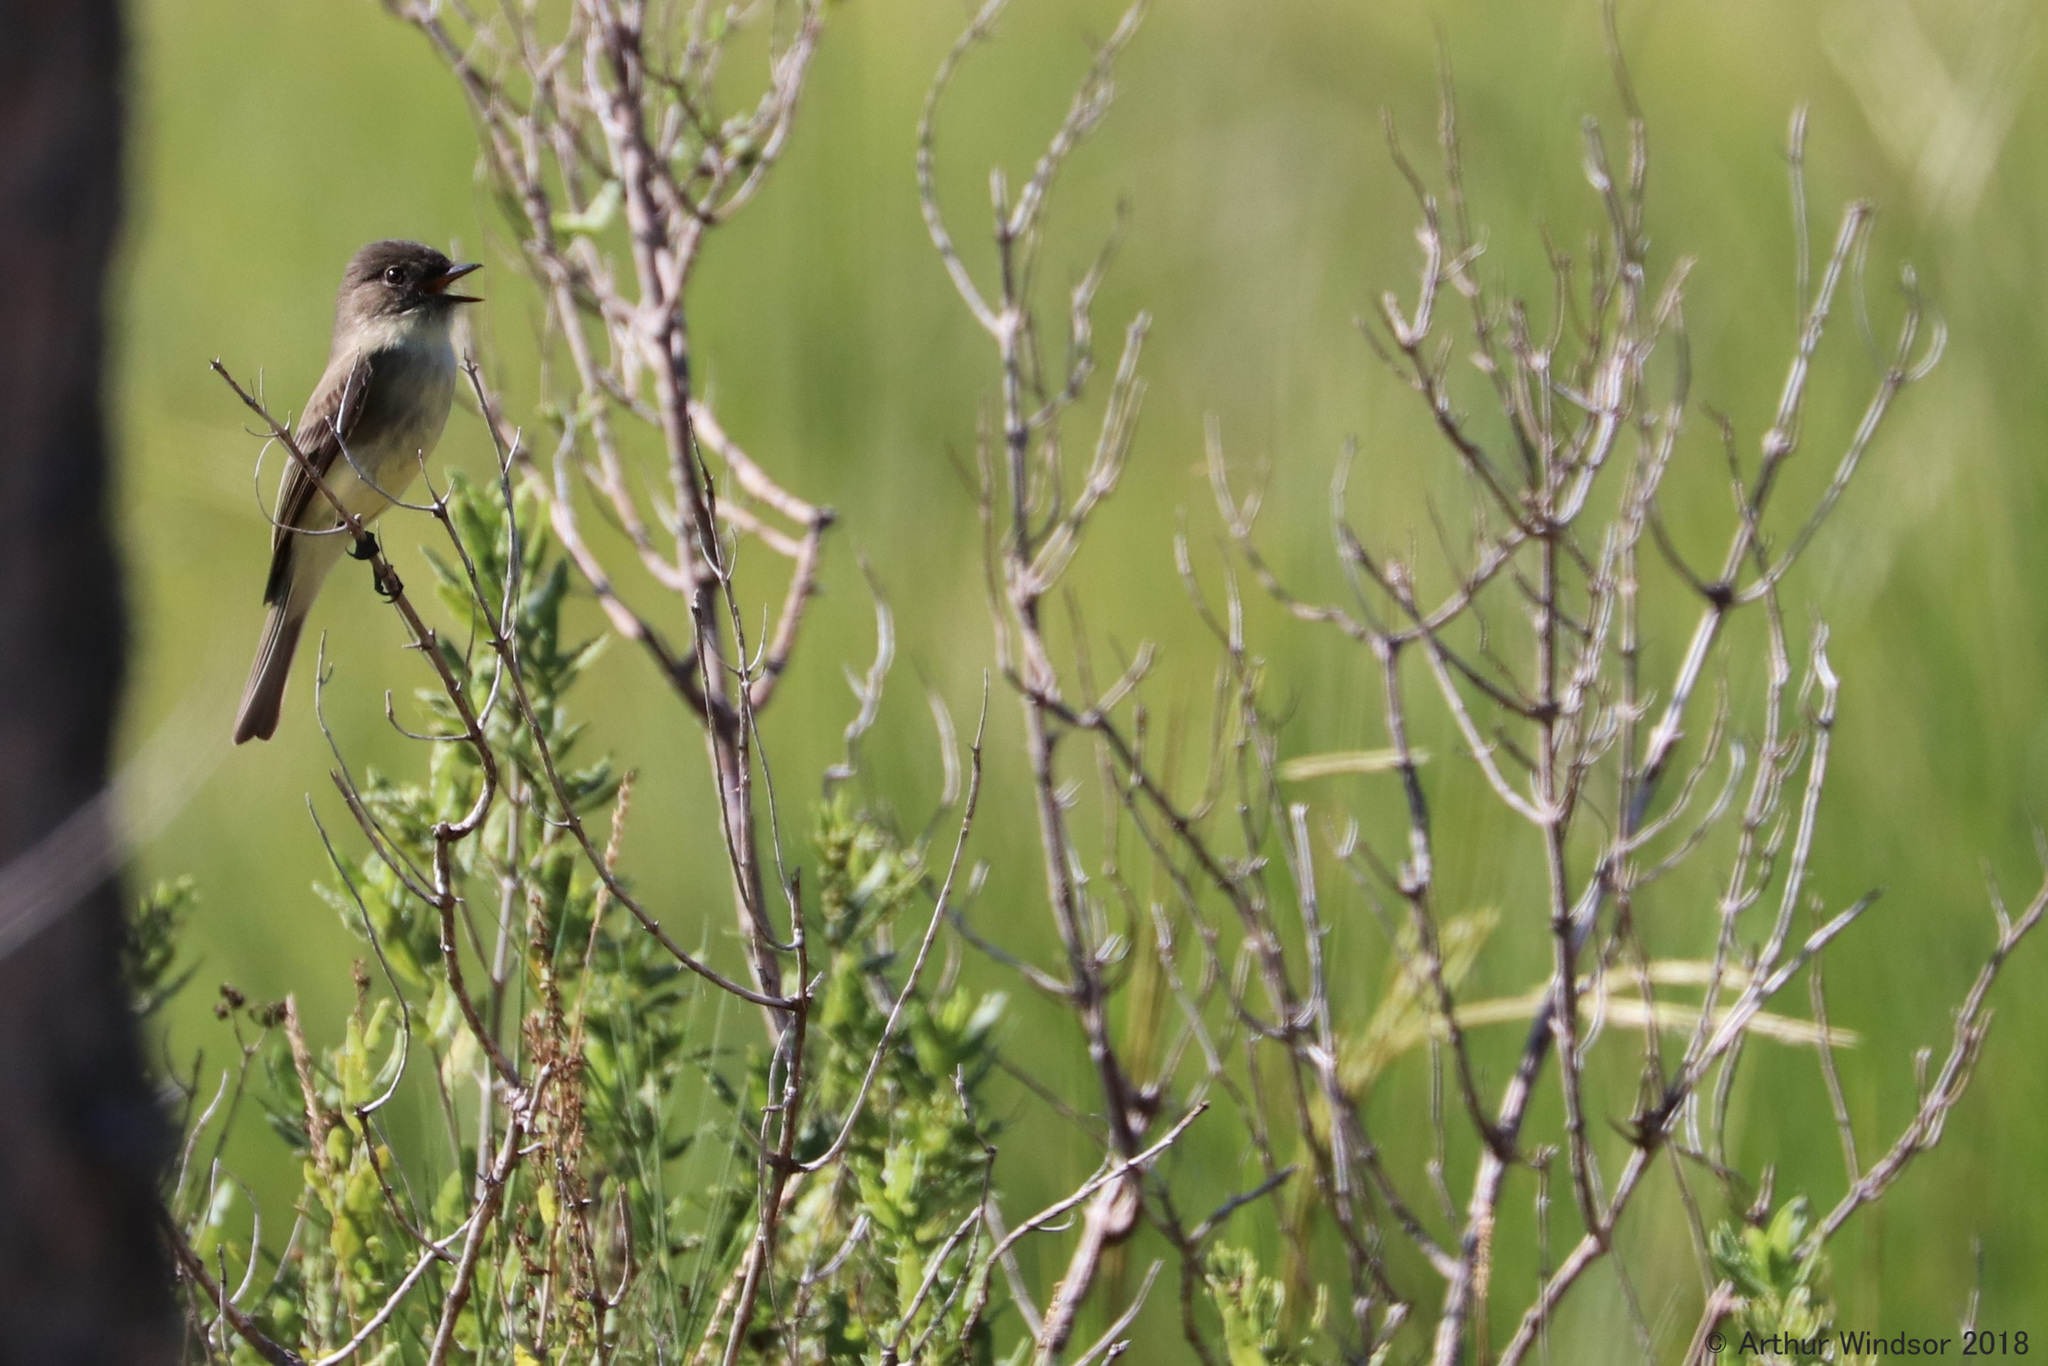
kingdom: Animalia
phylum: Chordata
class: Aves
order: Passeriformes
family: Tyrannidae
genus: Sayornis
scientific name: Sayornis phoebe
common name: Eastern phoebe
